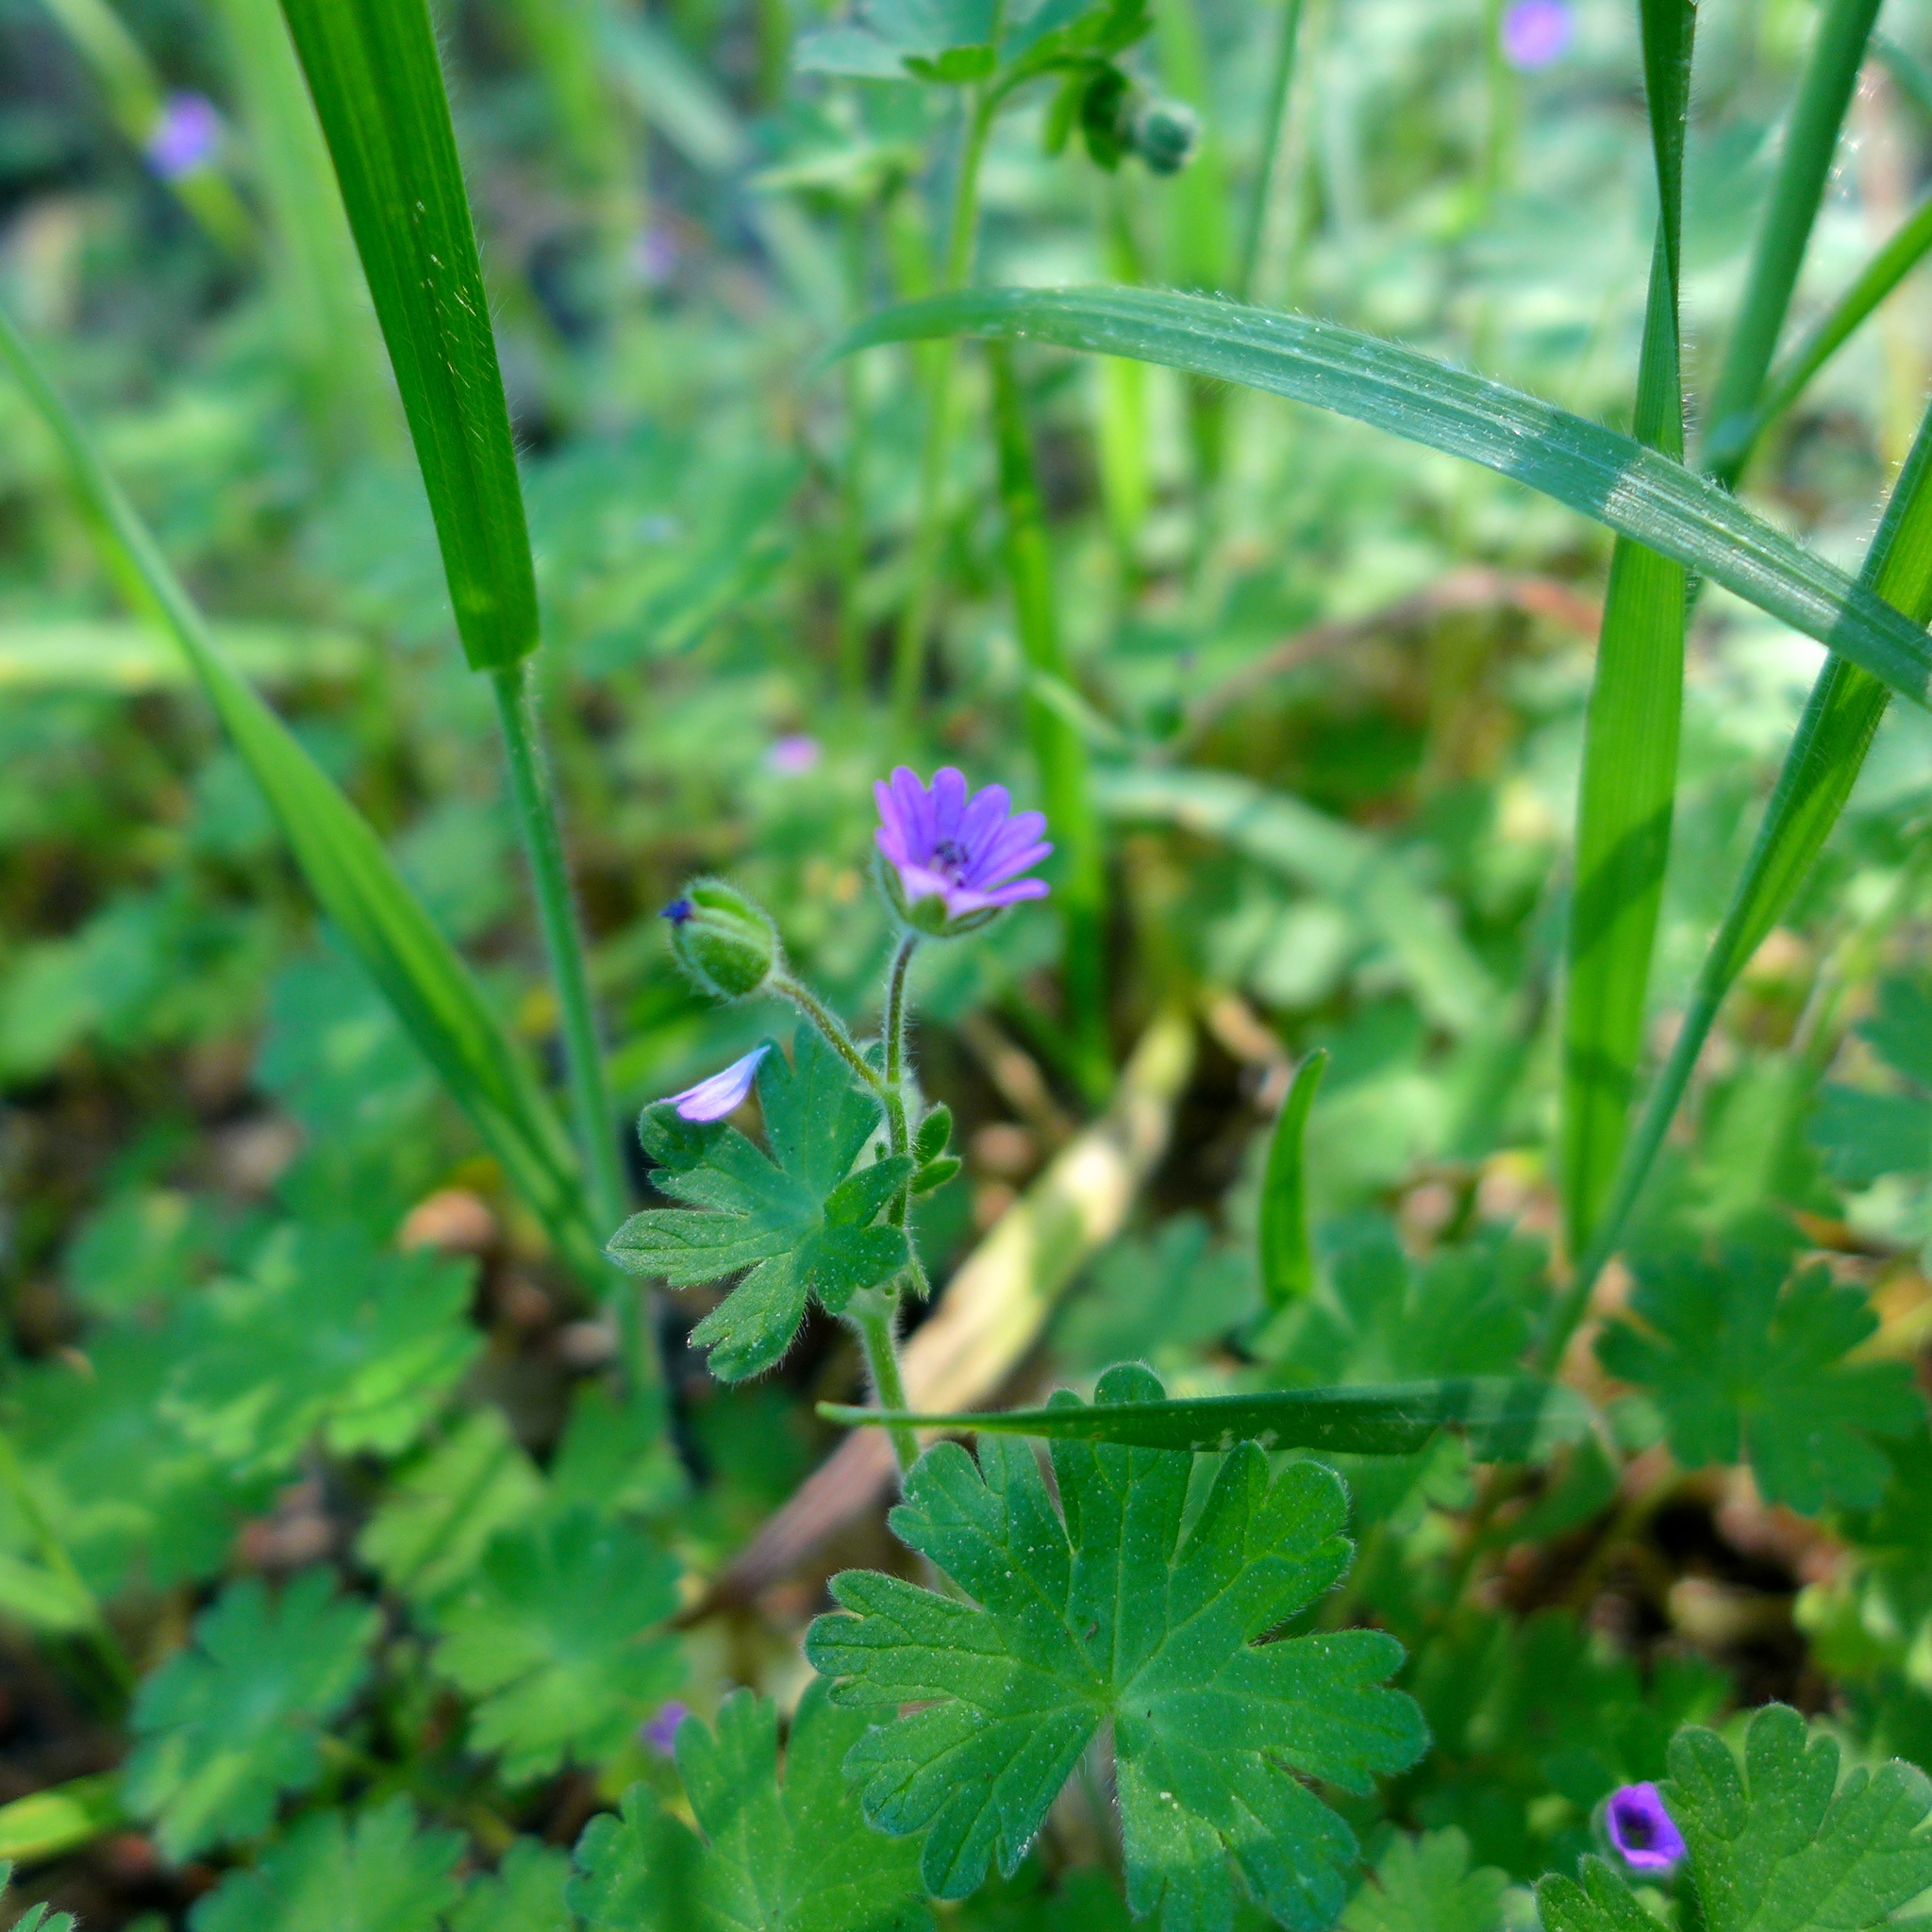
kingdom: Plantae
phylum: Tracheophyta
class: Magnoliopsida
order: Geraniales
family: Geraniaceae
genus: Geranium
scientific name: Geranium molle
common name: Dove's-foot crane's-bill
